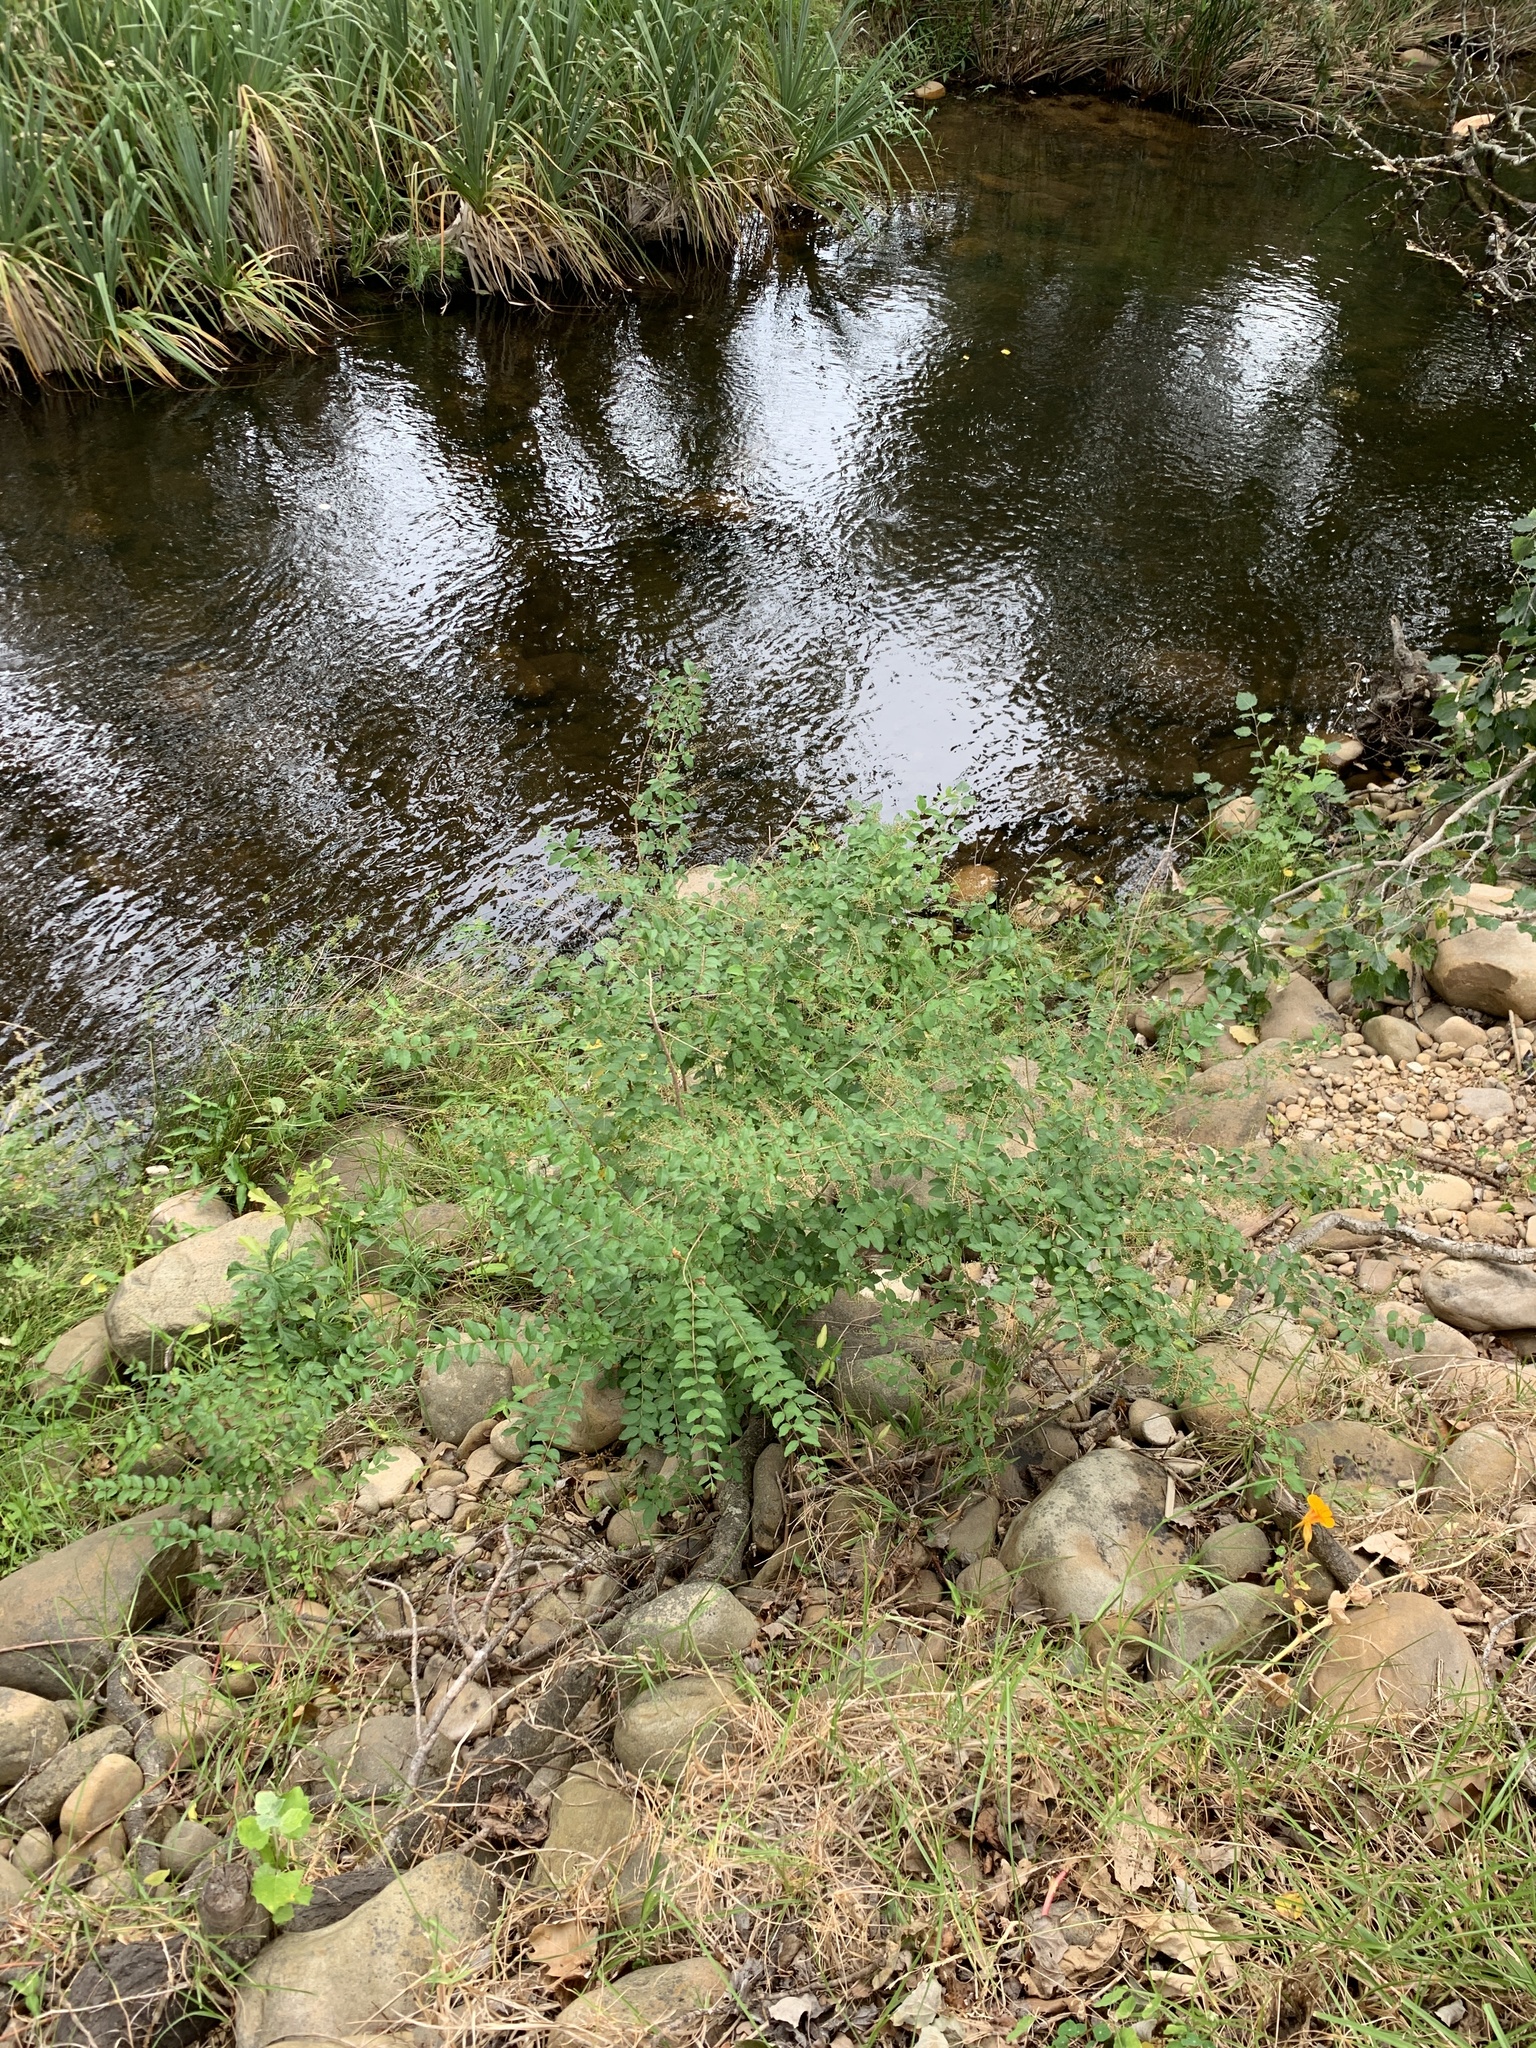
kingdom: Plantae
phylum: Tracheophyta
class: Magnoliopsida
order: Lamiales
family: Oleaceae
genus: Ligustrum
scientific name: Ligustrum sinense
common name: Chinese privet
